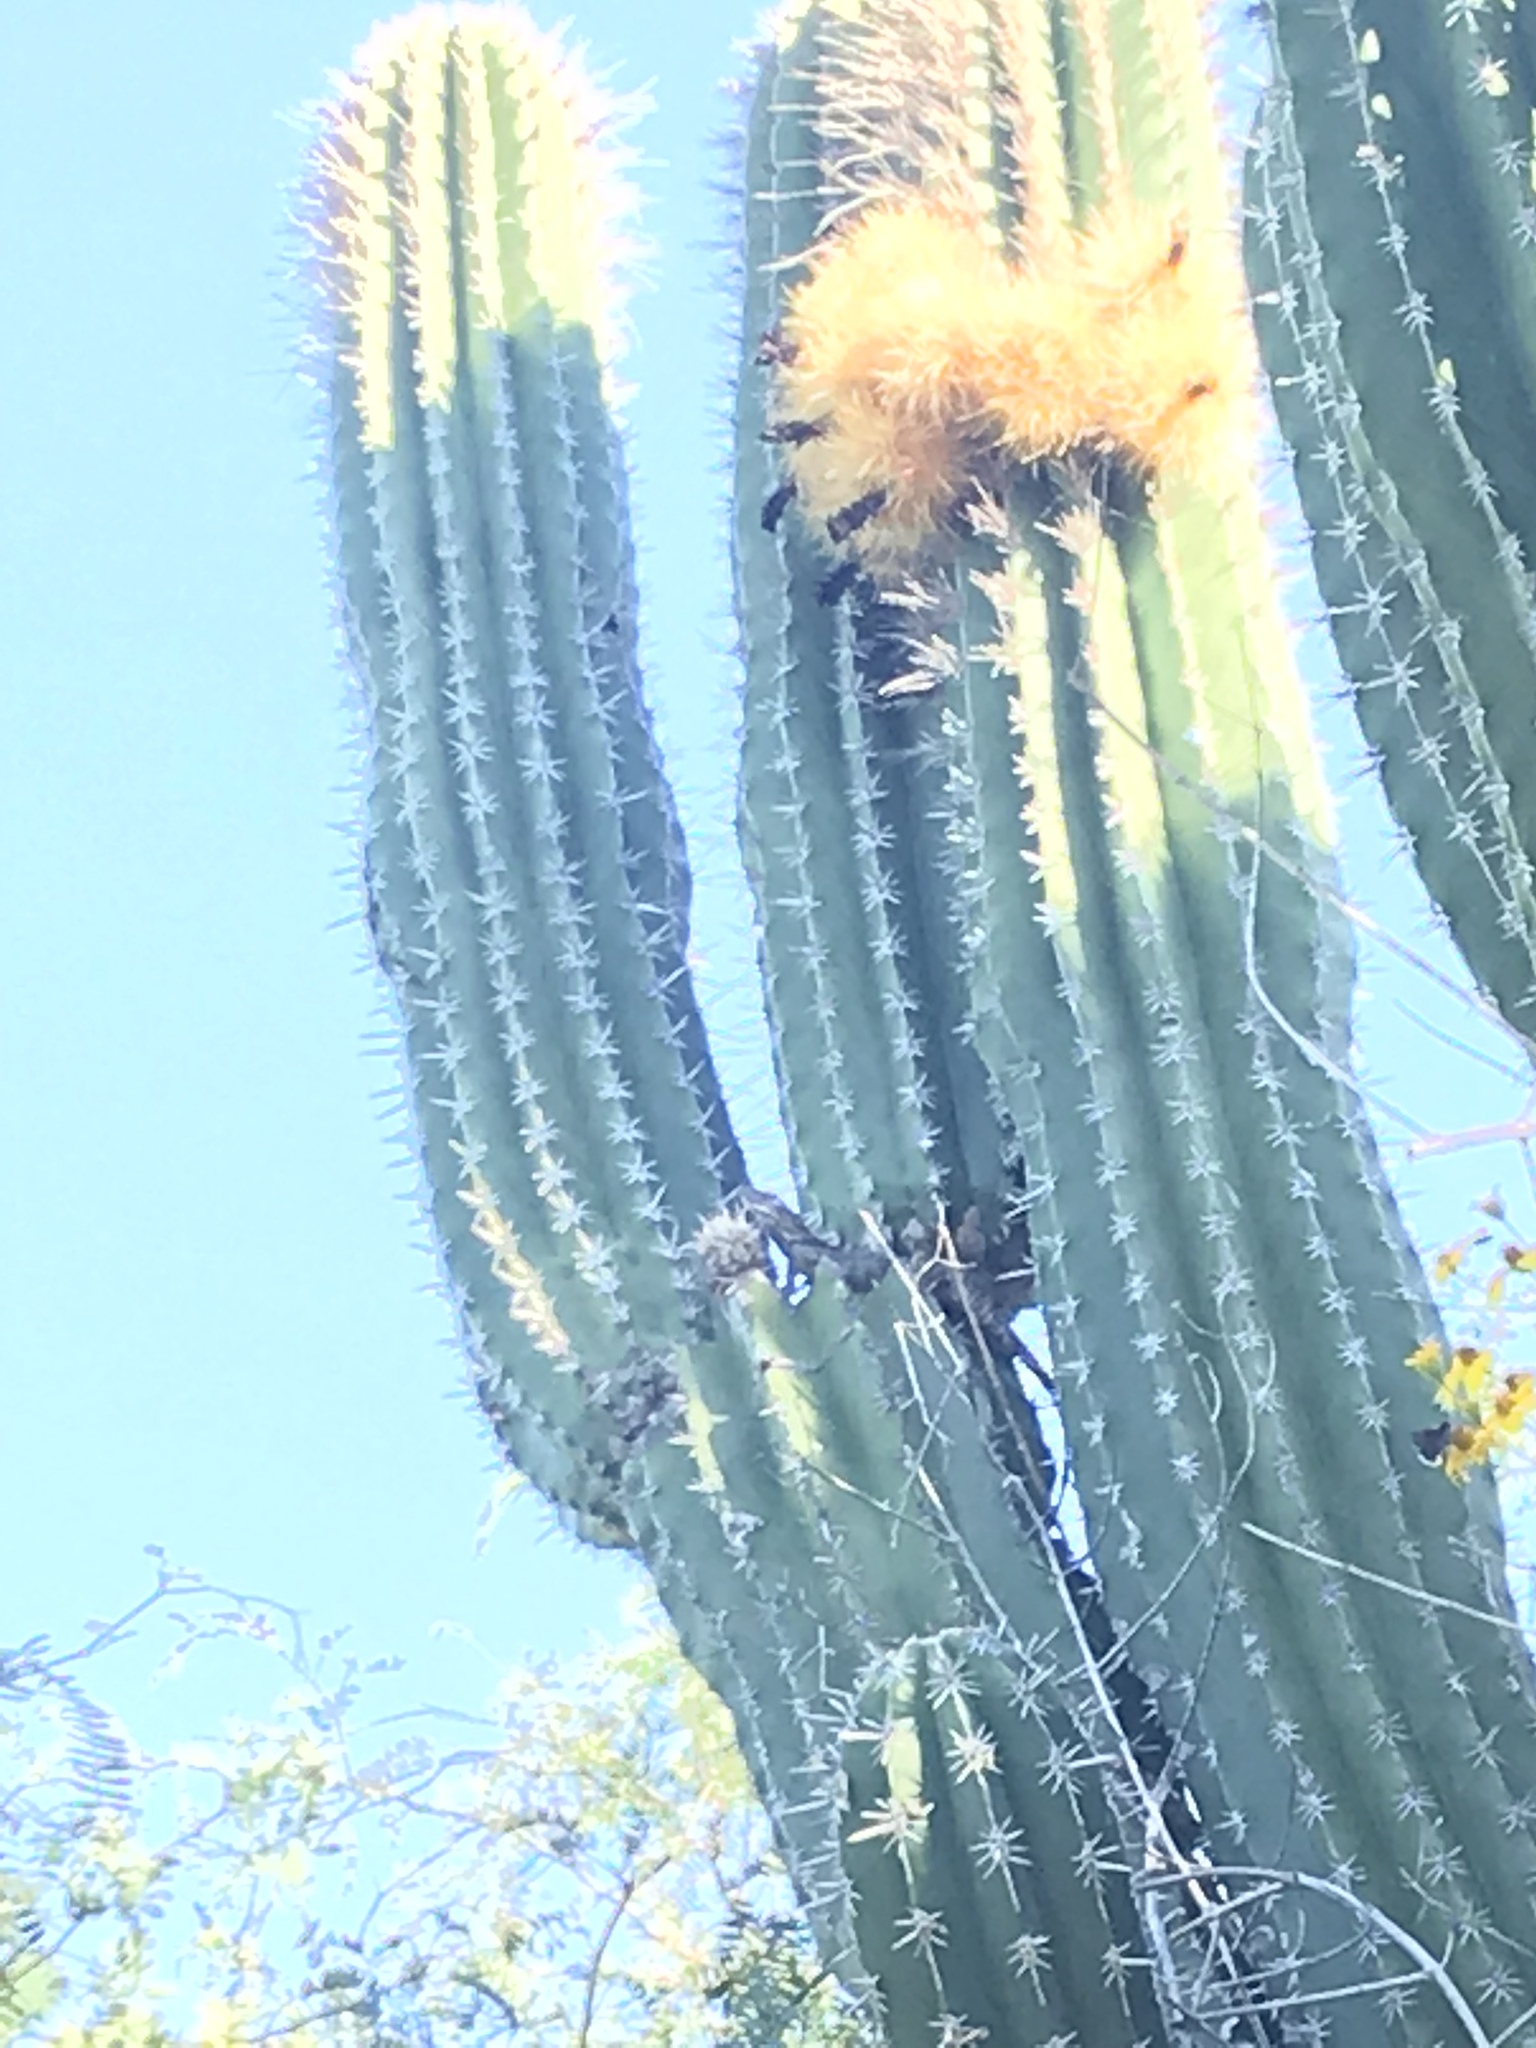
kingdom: Animalia
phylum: Chordata
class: Squamata
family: Iguanidae
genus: Ctenosaura
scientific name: Ctenosaura hemilopha
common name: Baja california spiny- tailed iguana
